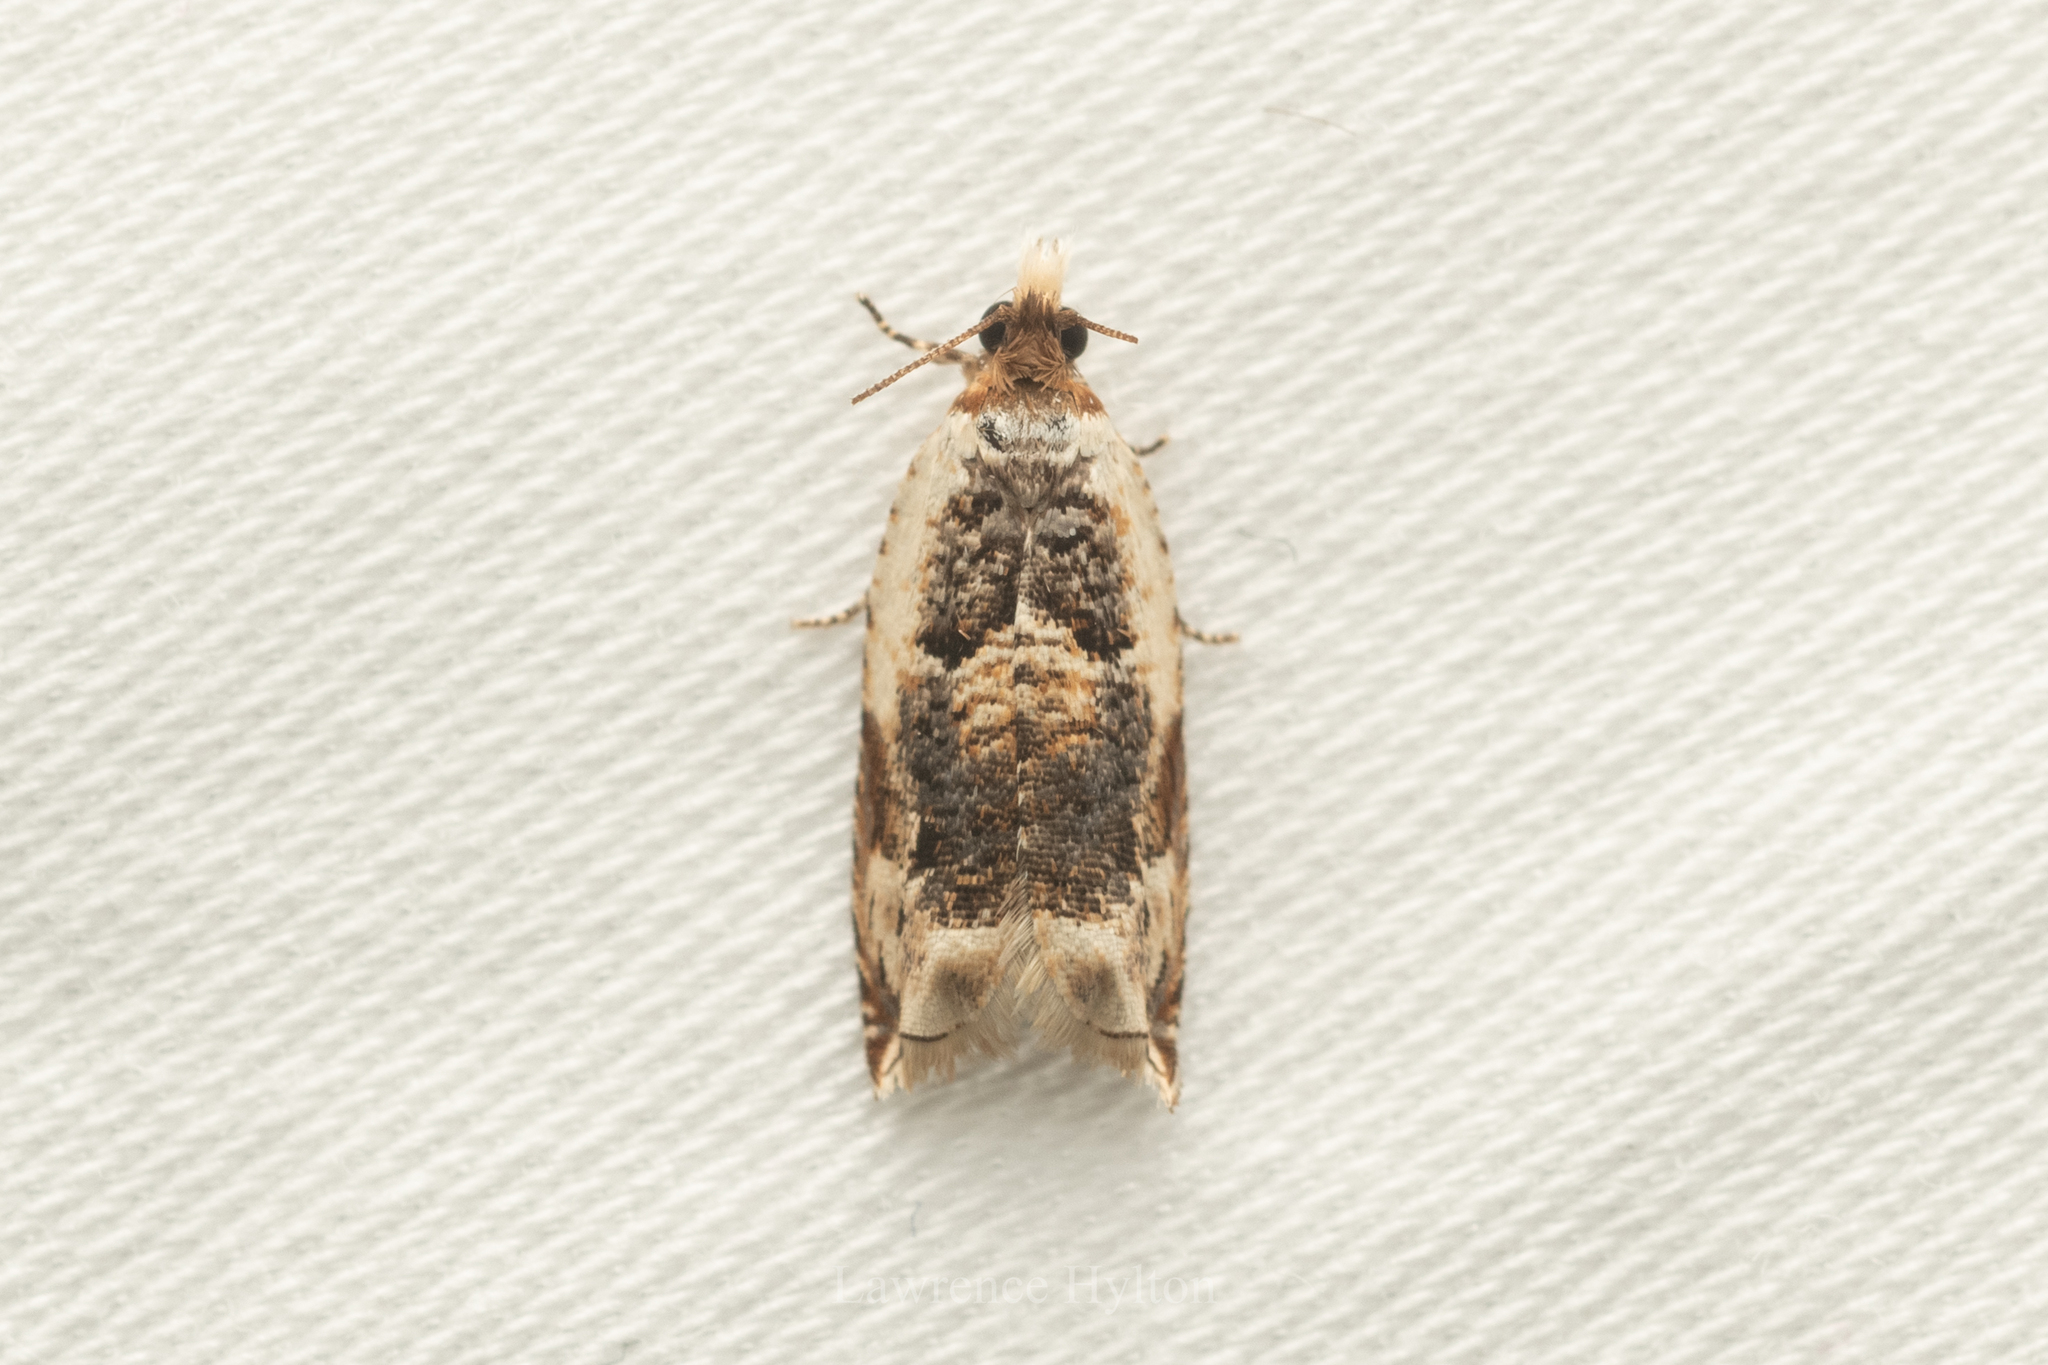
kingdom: Animalia
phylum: Arthropoda
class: Insecta
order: Lepidoptera
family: Tortricidae
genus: Acroclita
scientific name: Acroclita catharotorna
